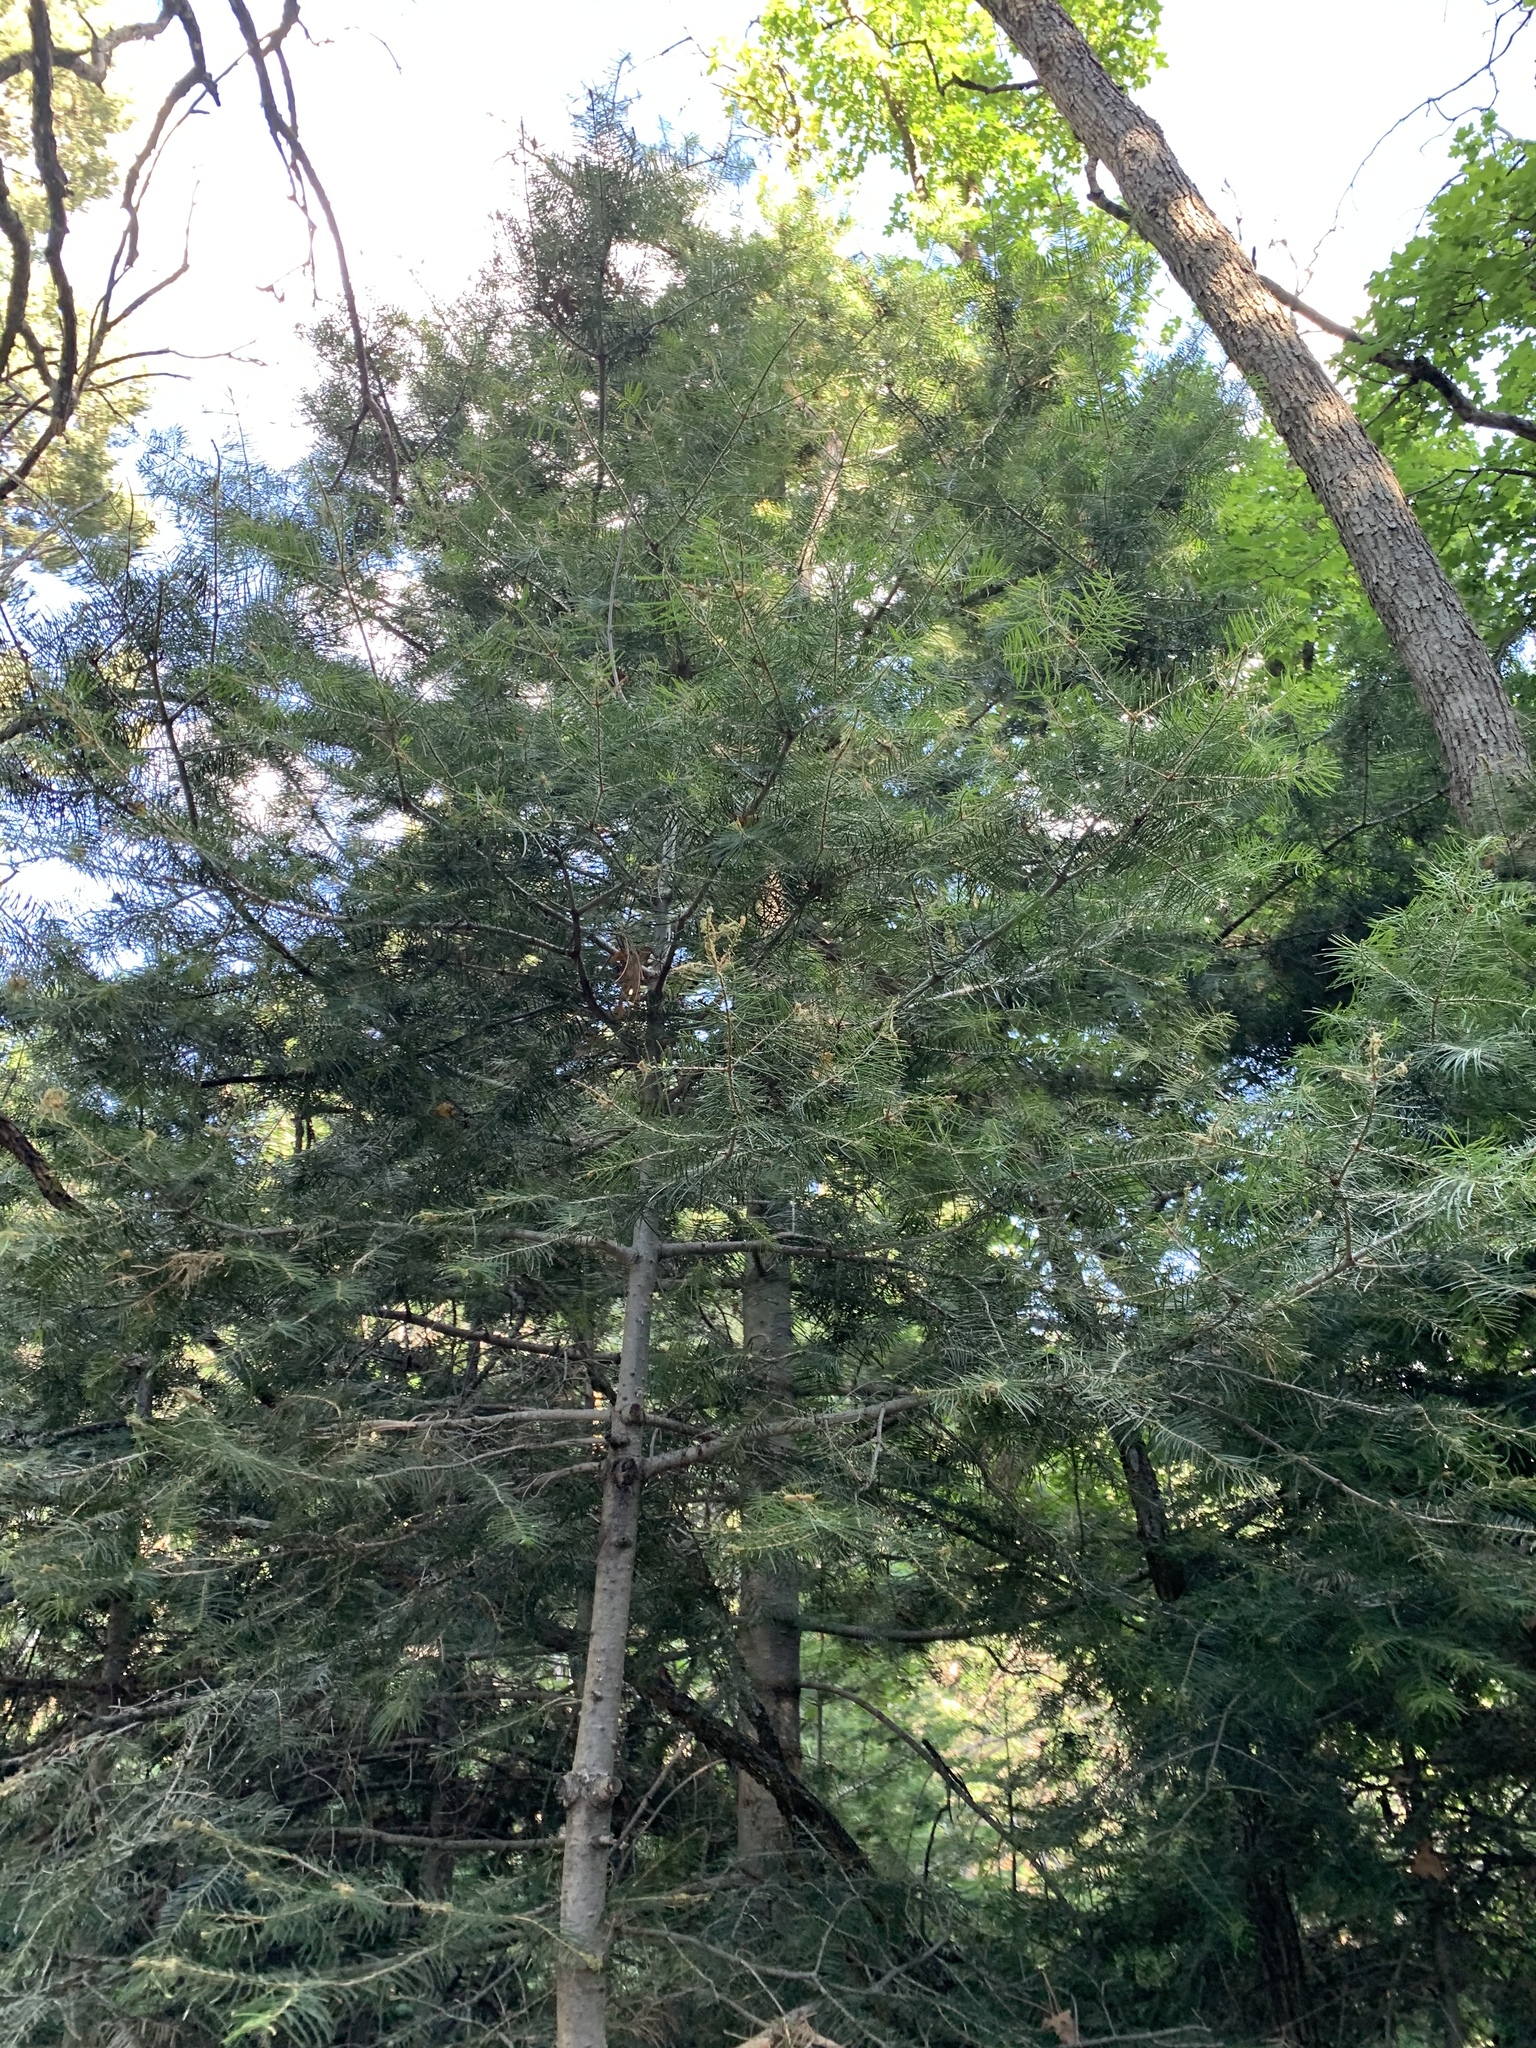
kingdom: Plantae
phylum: Tracheophyta
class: Pinopsida
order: Pinales
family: Pinaceae
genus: Abies
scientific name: Abies concolor
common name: Colorado fir
